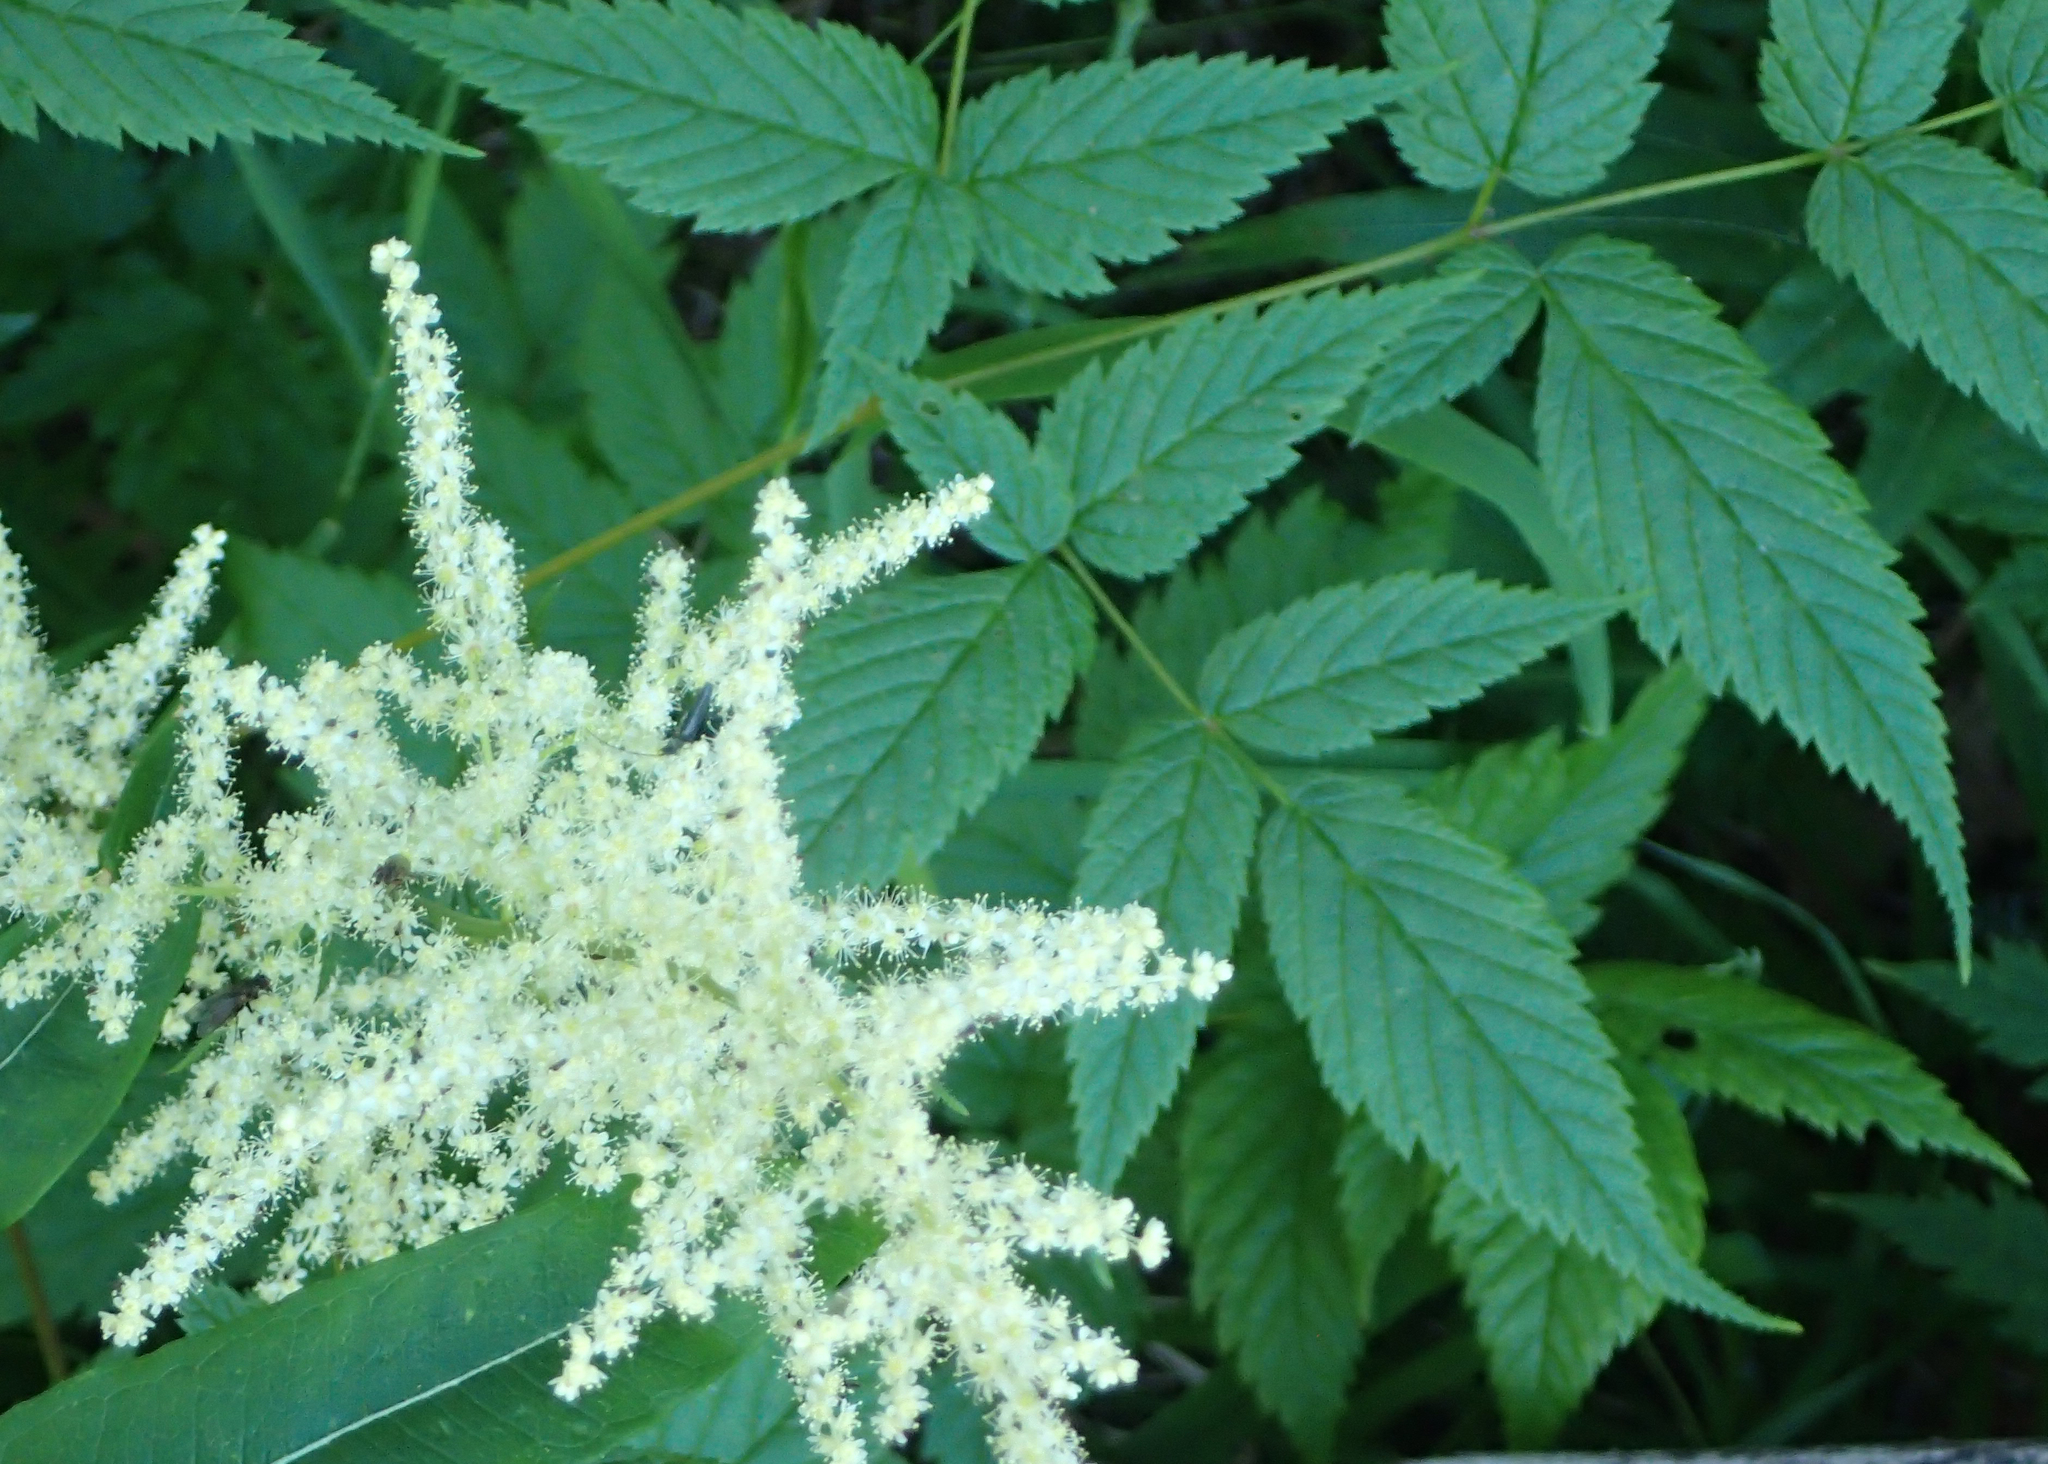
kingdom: Plantae
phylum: Tracheophyta
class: Magnoliopsida
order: Rosales
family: Rosaceae
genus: Aruncus
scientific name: Aruncus dioicus
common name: Buck's-beard
